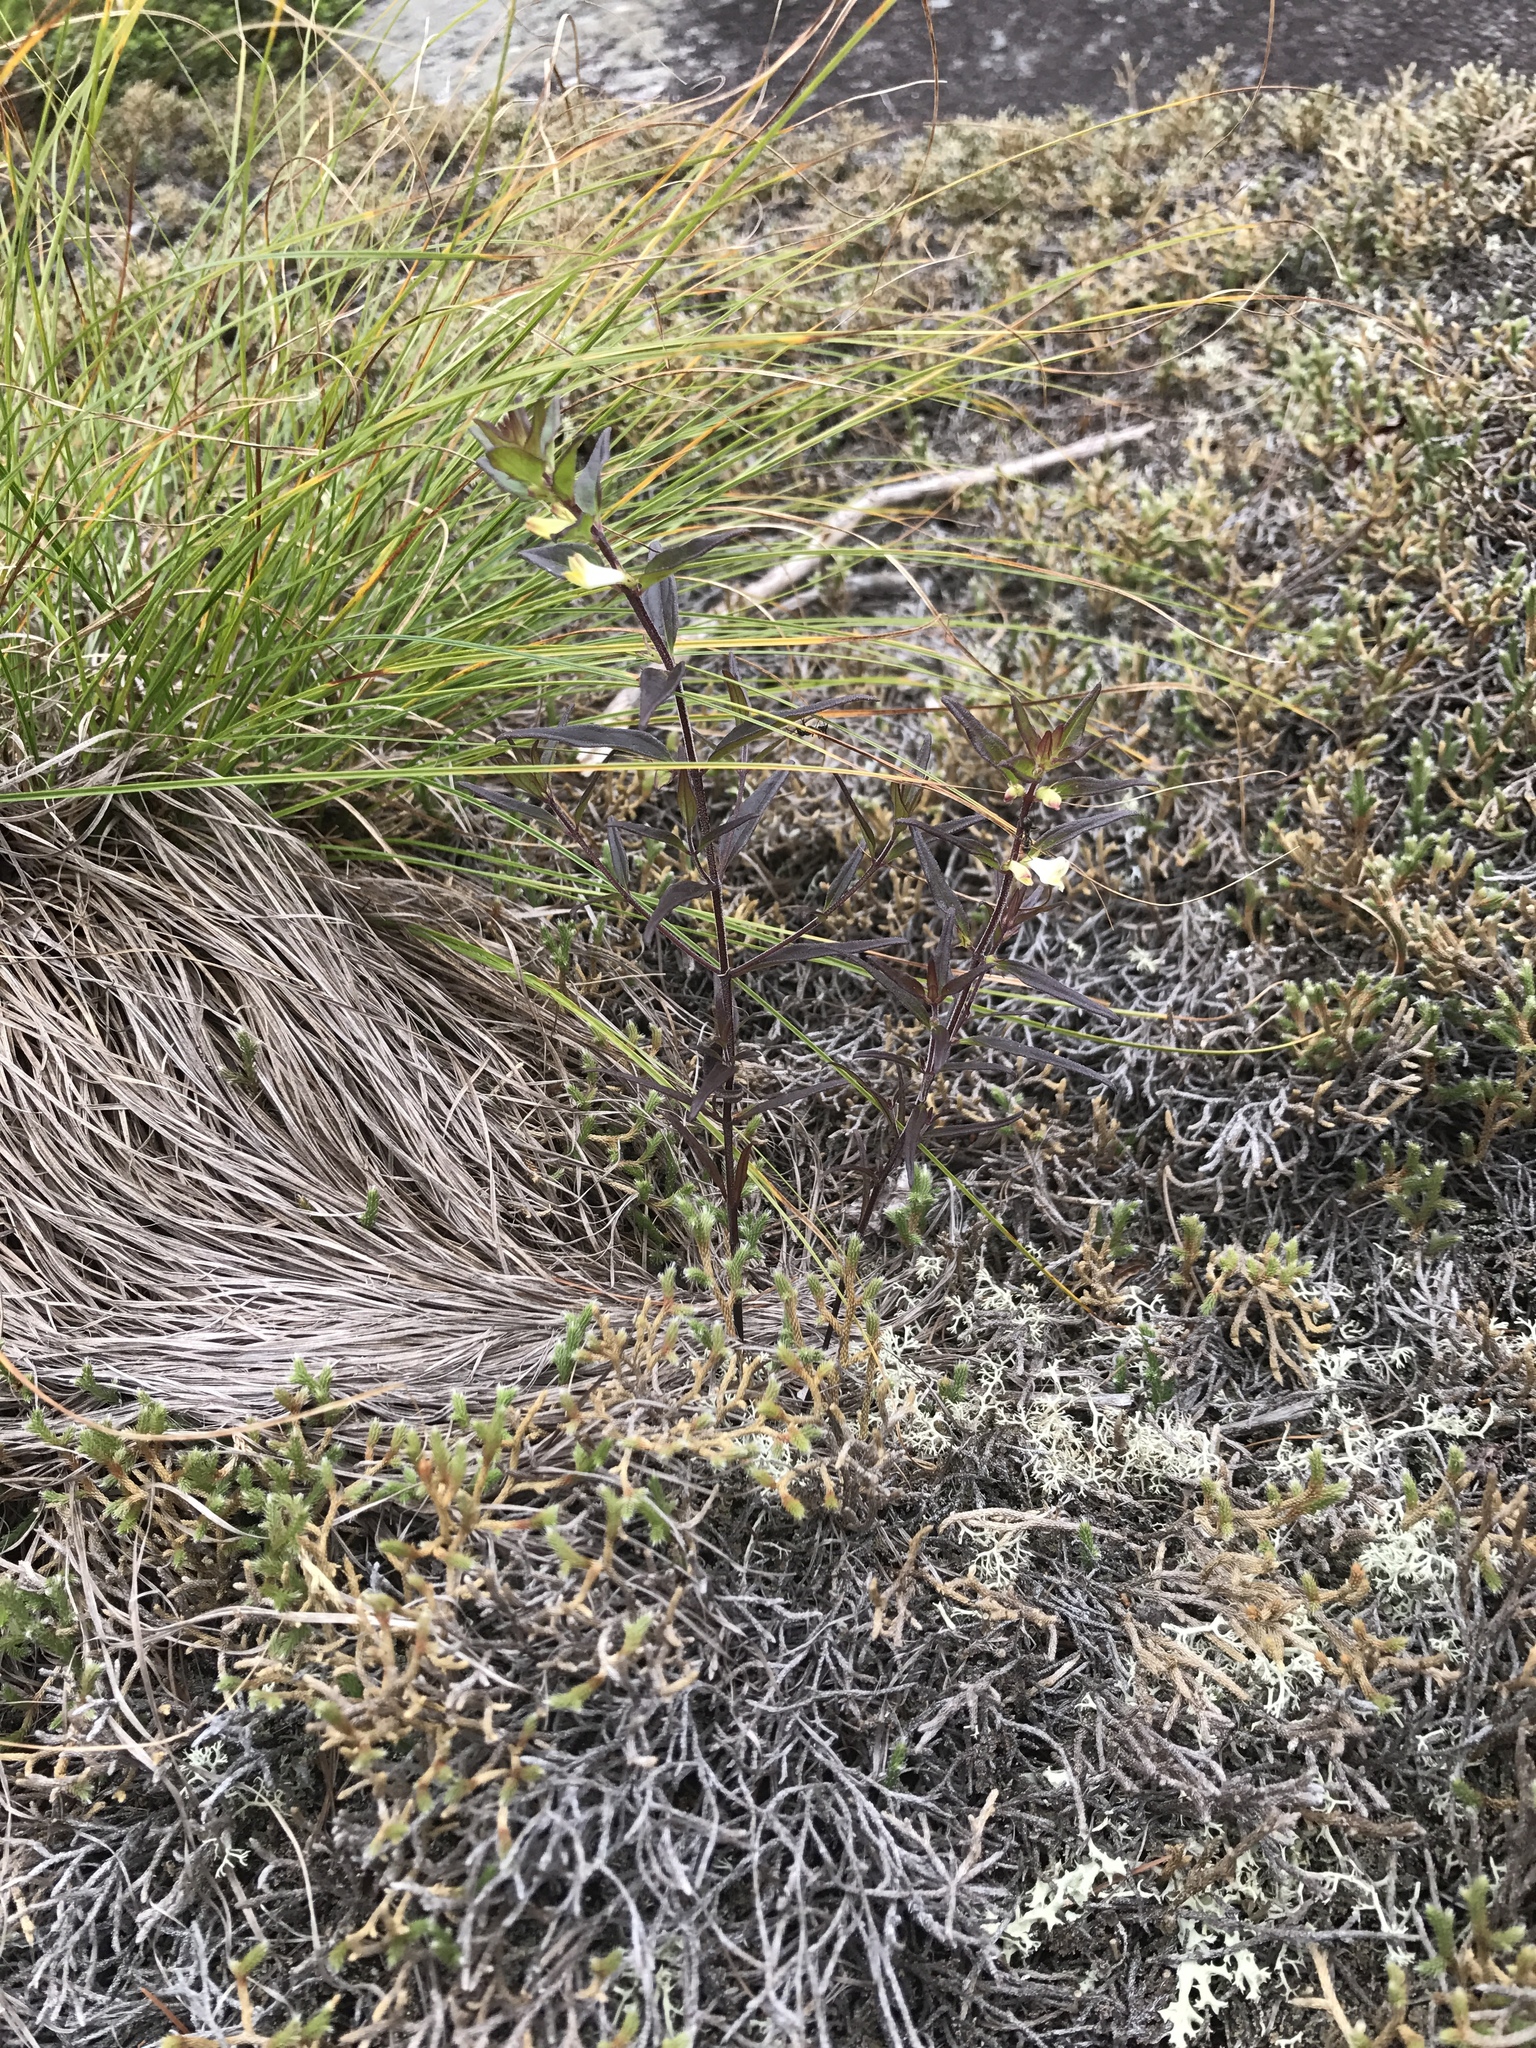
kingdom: Plantae
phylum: Tracheophyta
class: Magnoliopsida
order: Lamiales
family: Orobanchaceae
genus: Melampyrum
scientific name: Melampyrum lineare
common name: American cow-wheat
